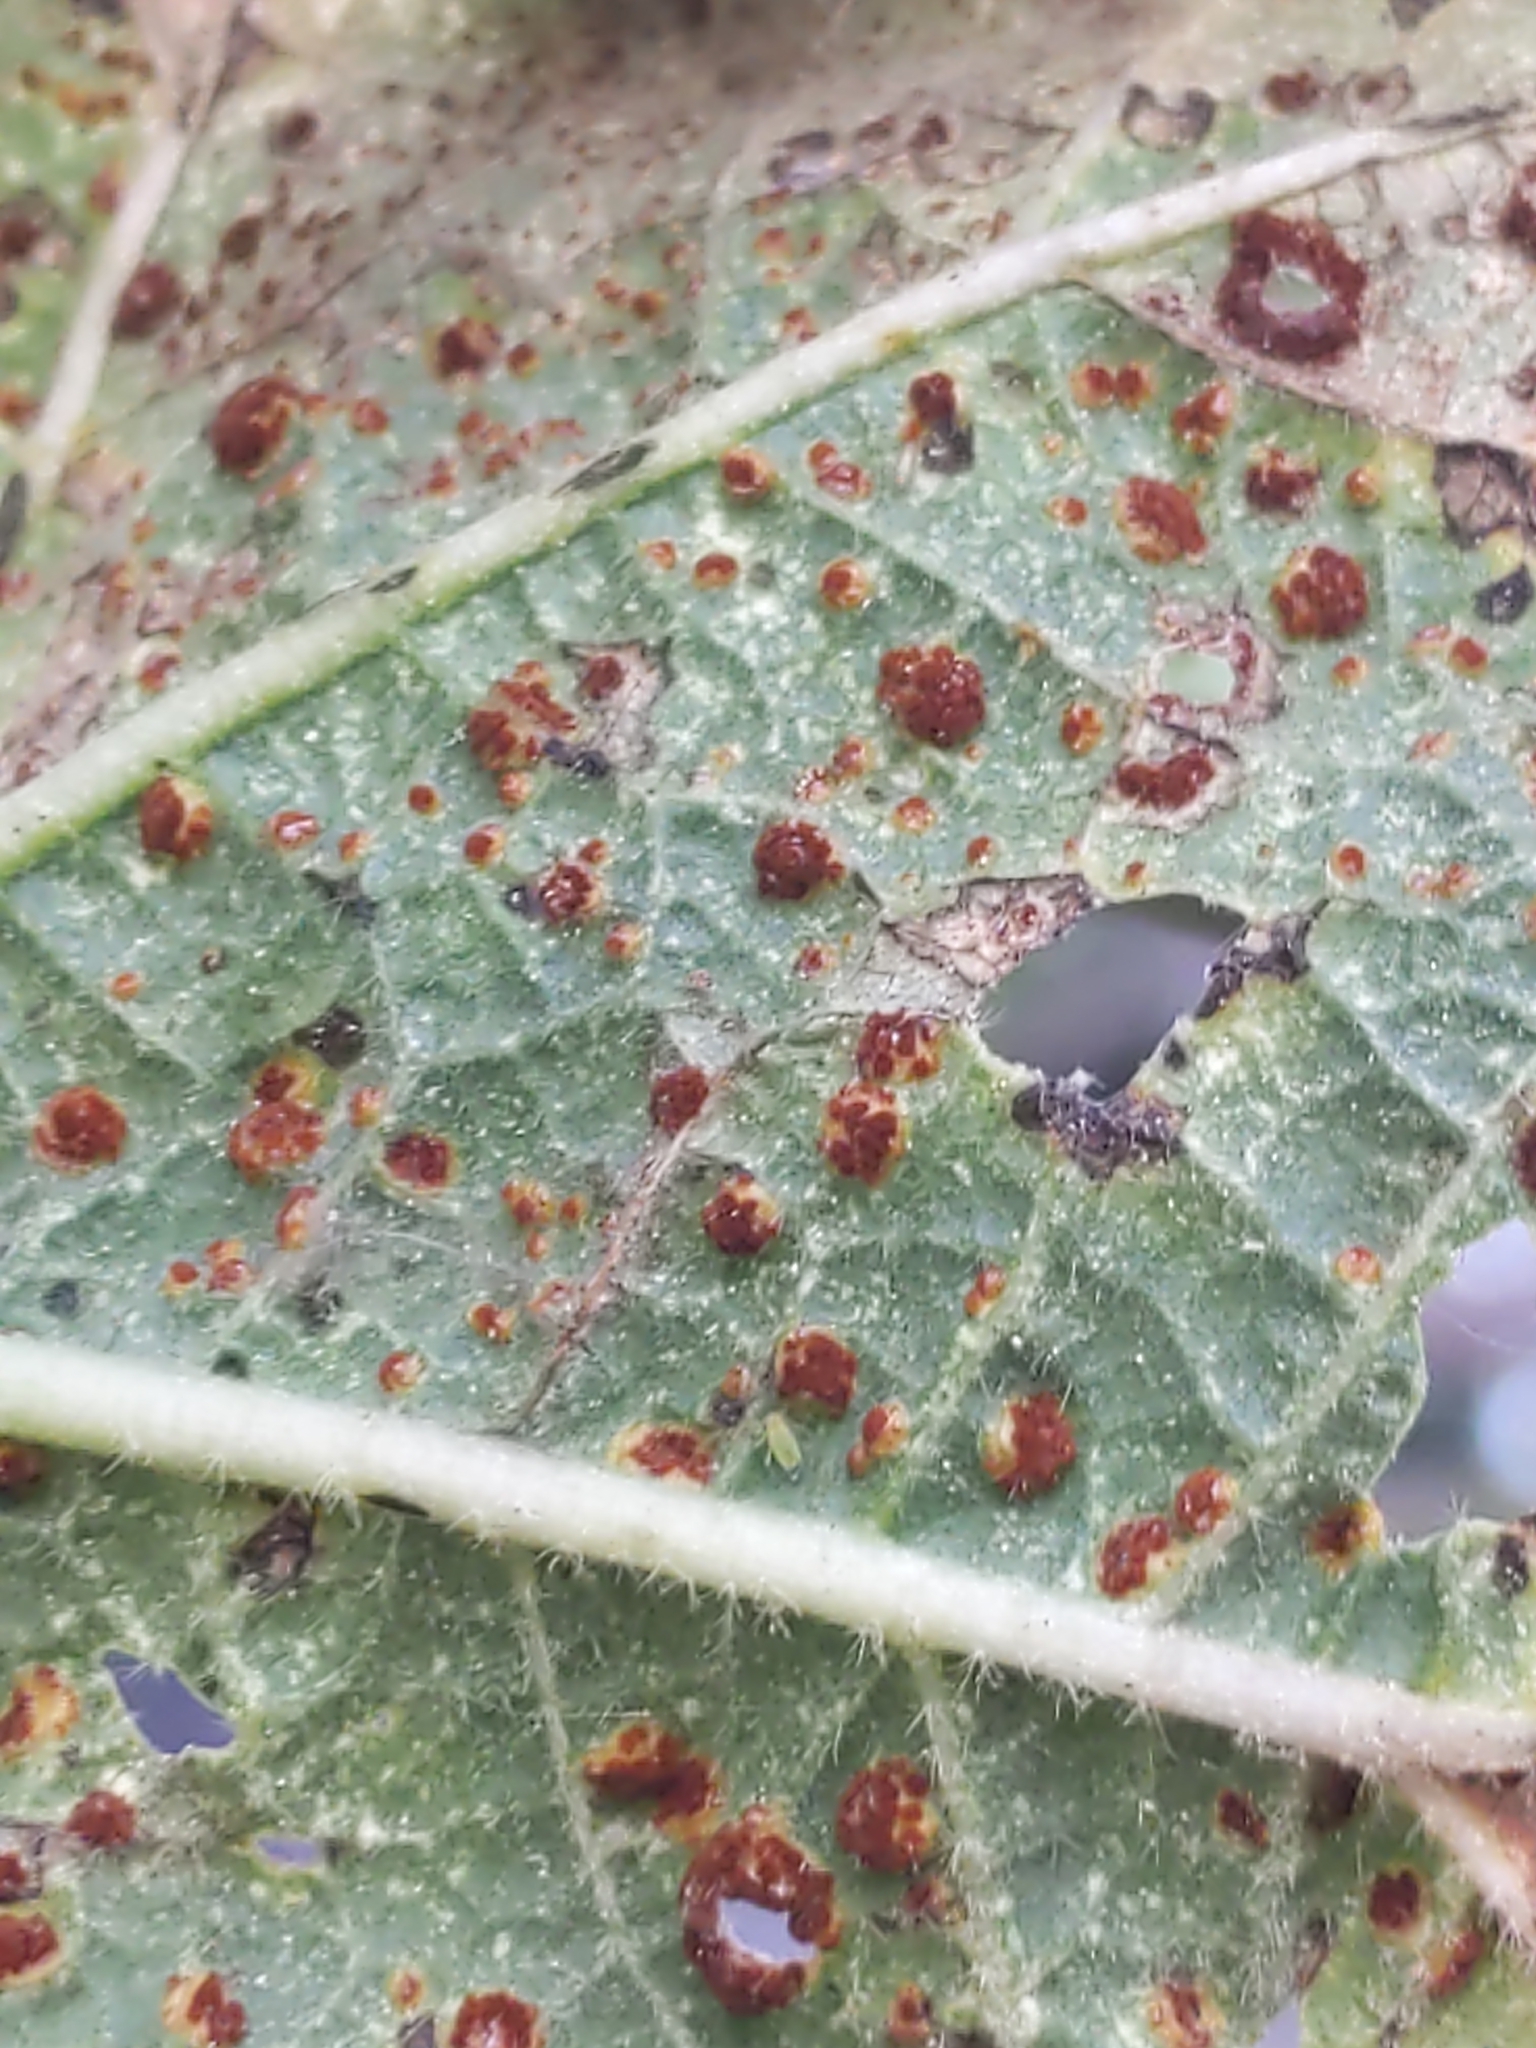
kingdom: Fungi
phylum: Basidiomycota
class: Pucciniomycetes
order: Pucciniales
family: Pucciniaceae
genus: Puccinia
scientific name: Puccinia malvacearum
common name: Hollyhock rust
